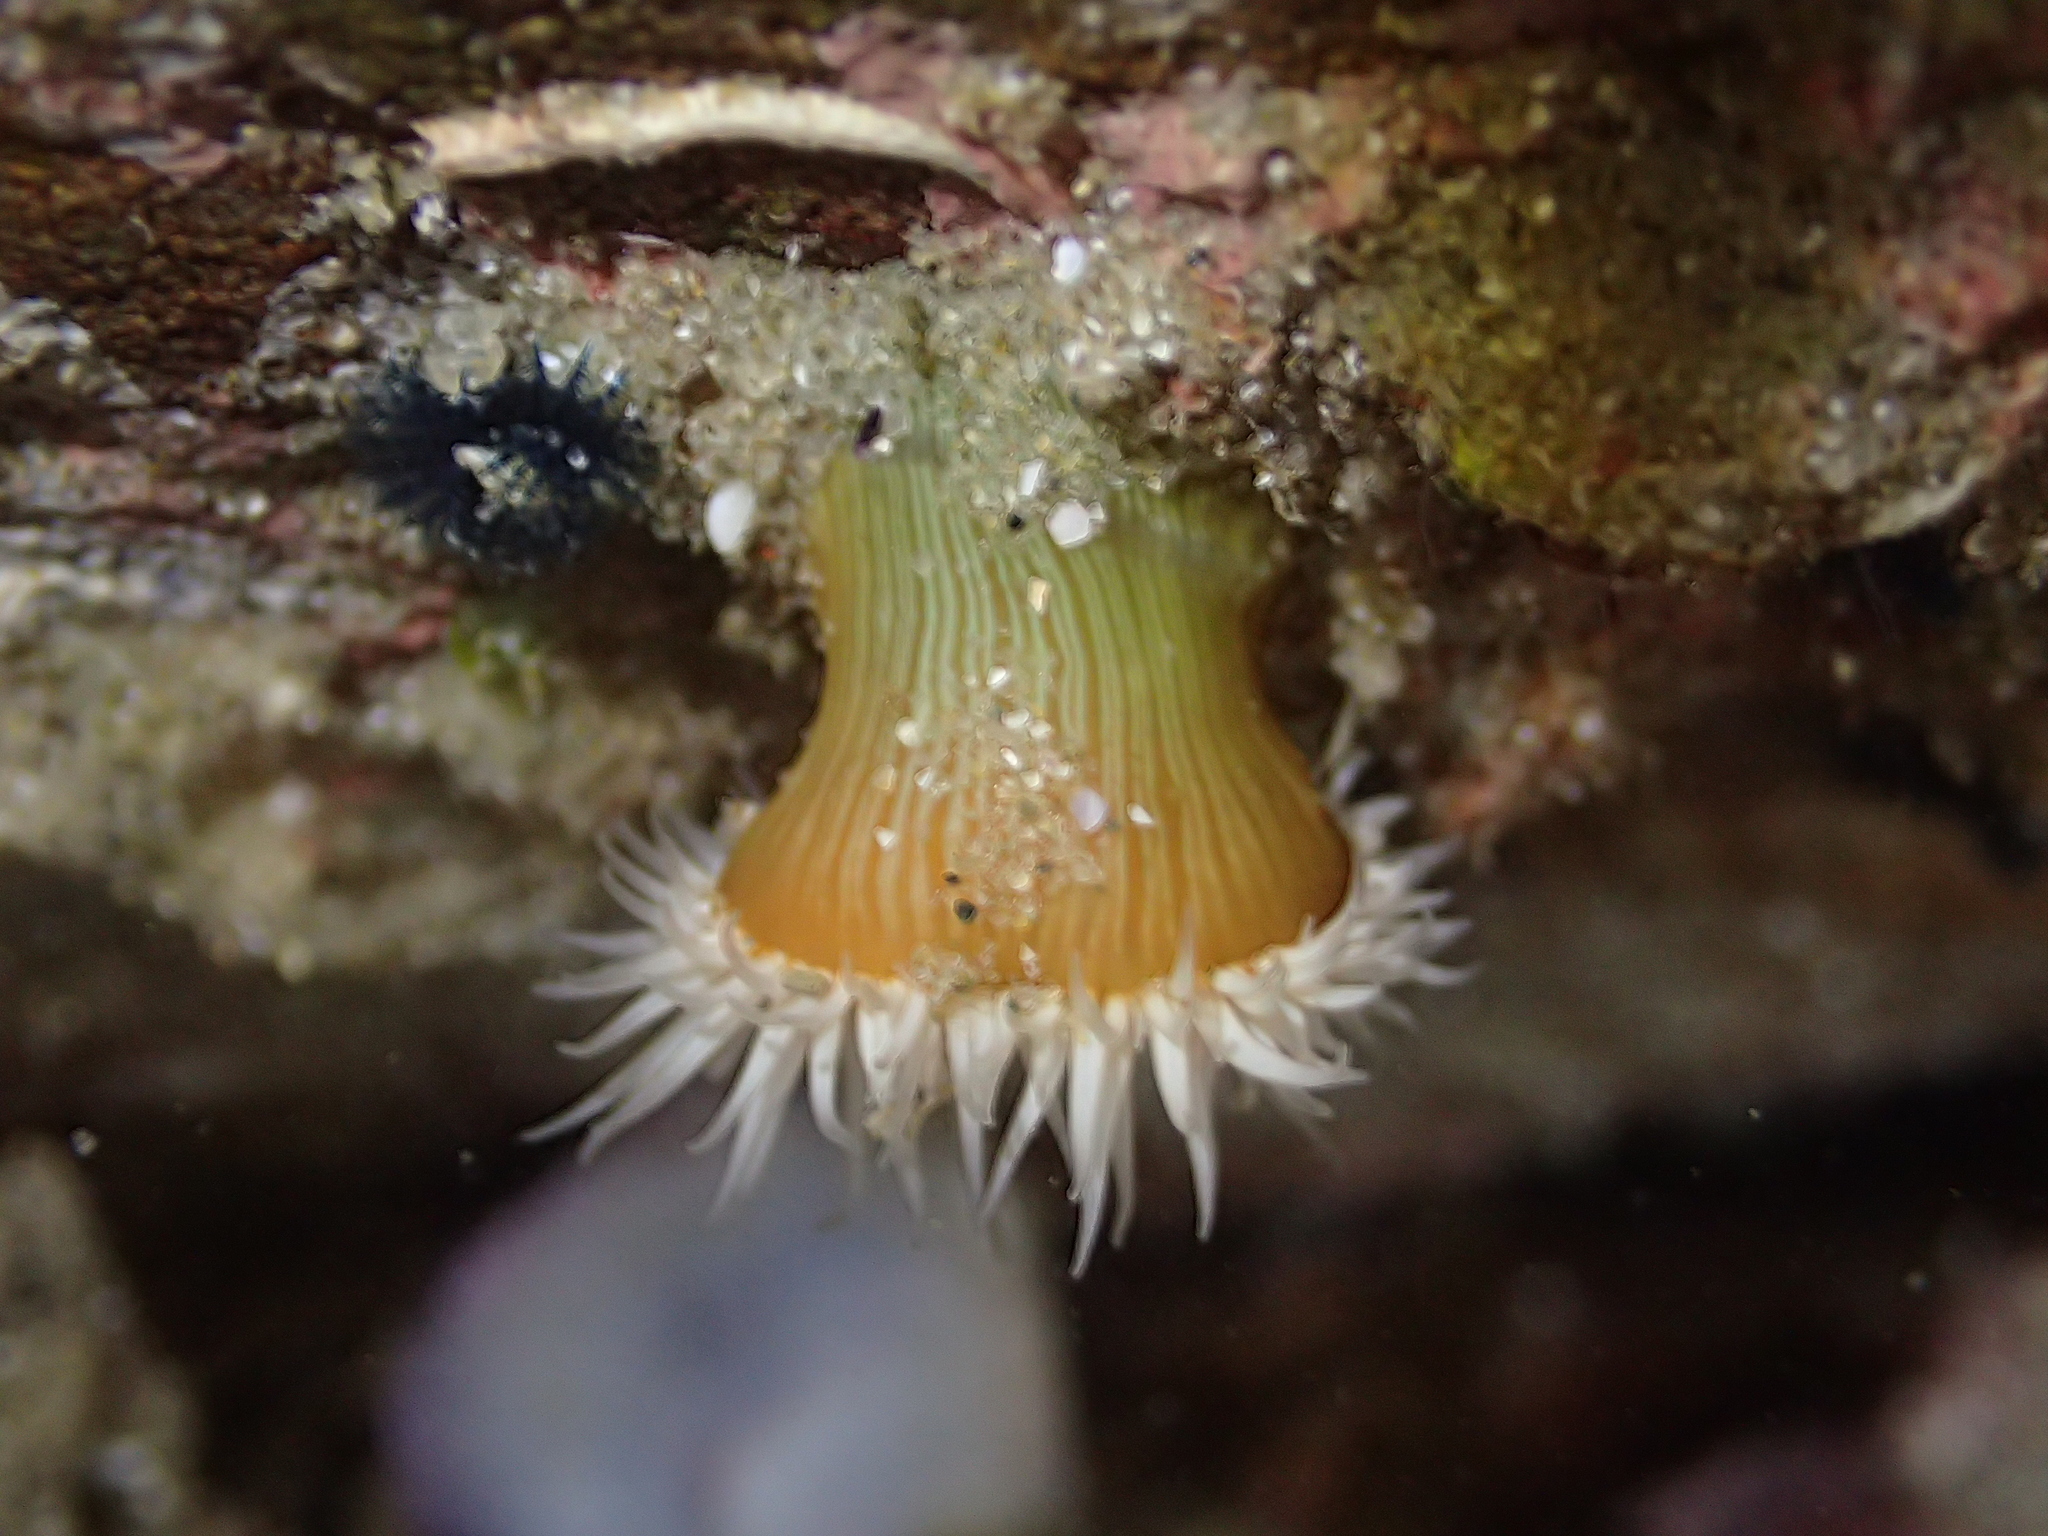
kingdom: Animalia
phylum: Cnidaria
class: Anthozoa
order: Actiniaria
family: Sagartiidae
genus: Anthothoe
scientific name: Anthothoe albocincta
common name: Orange striped anemone
